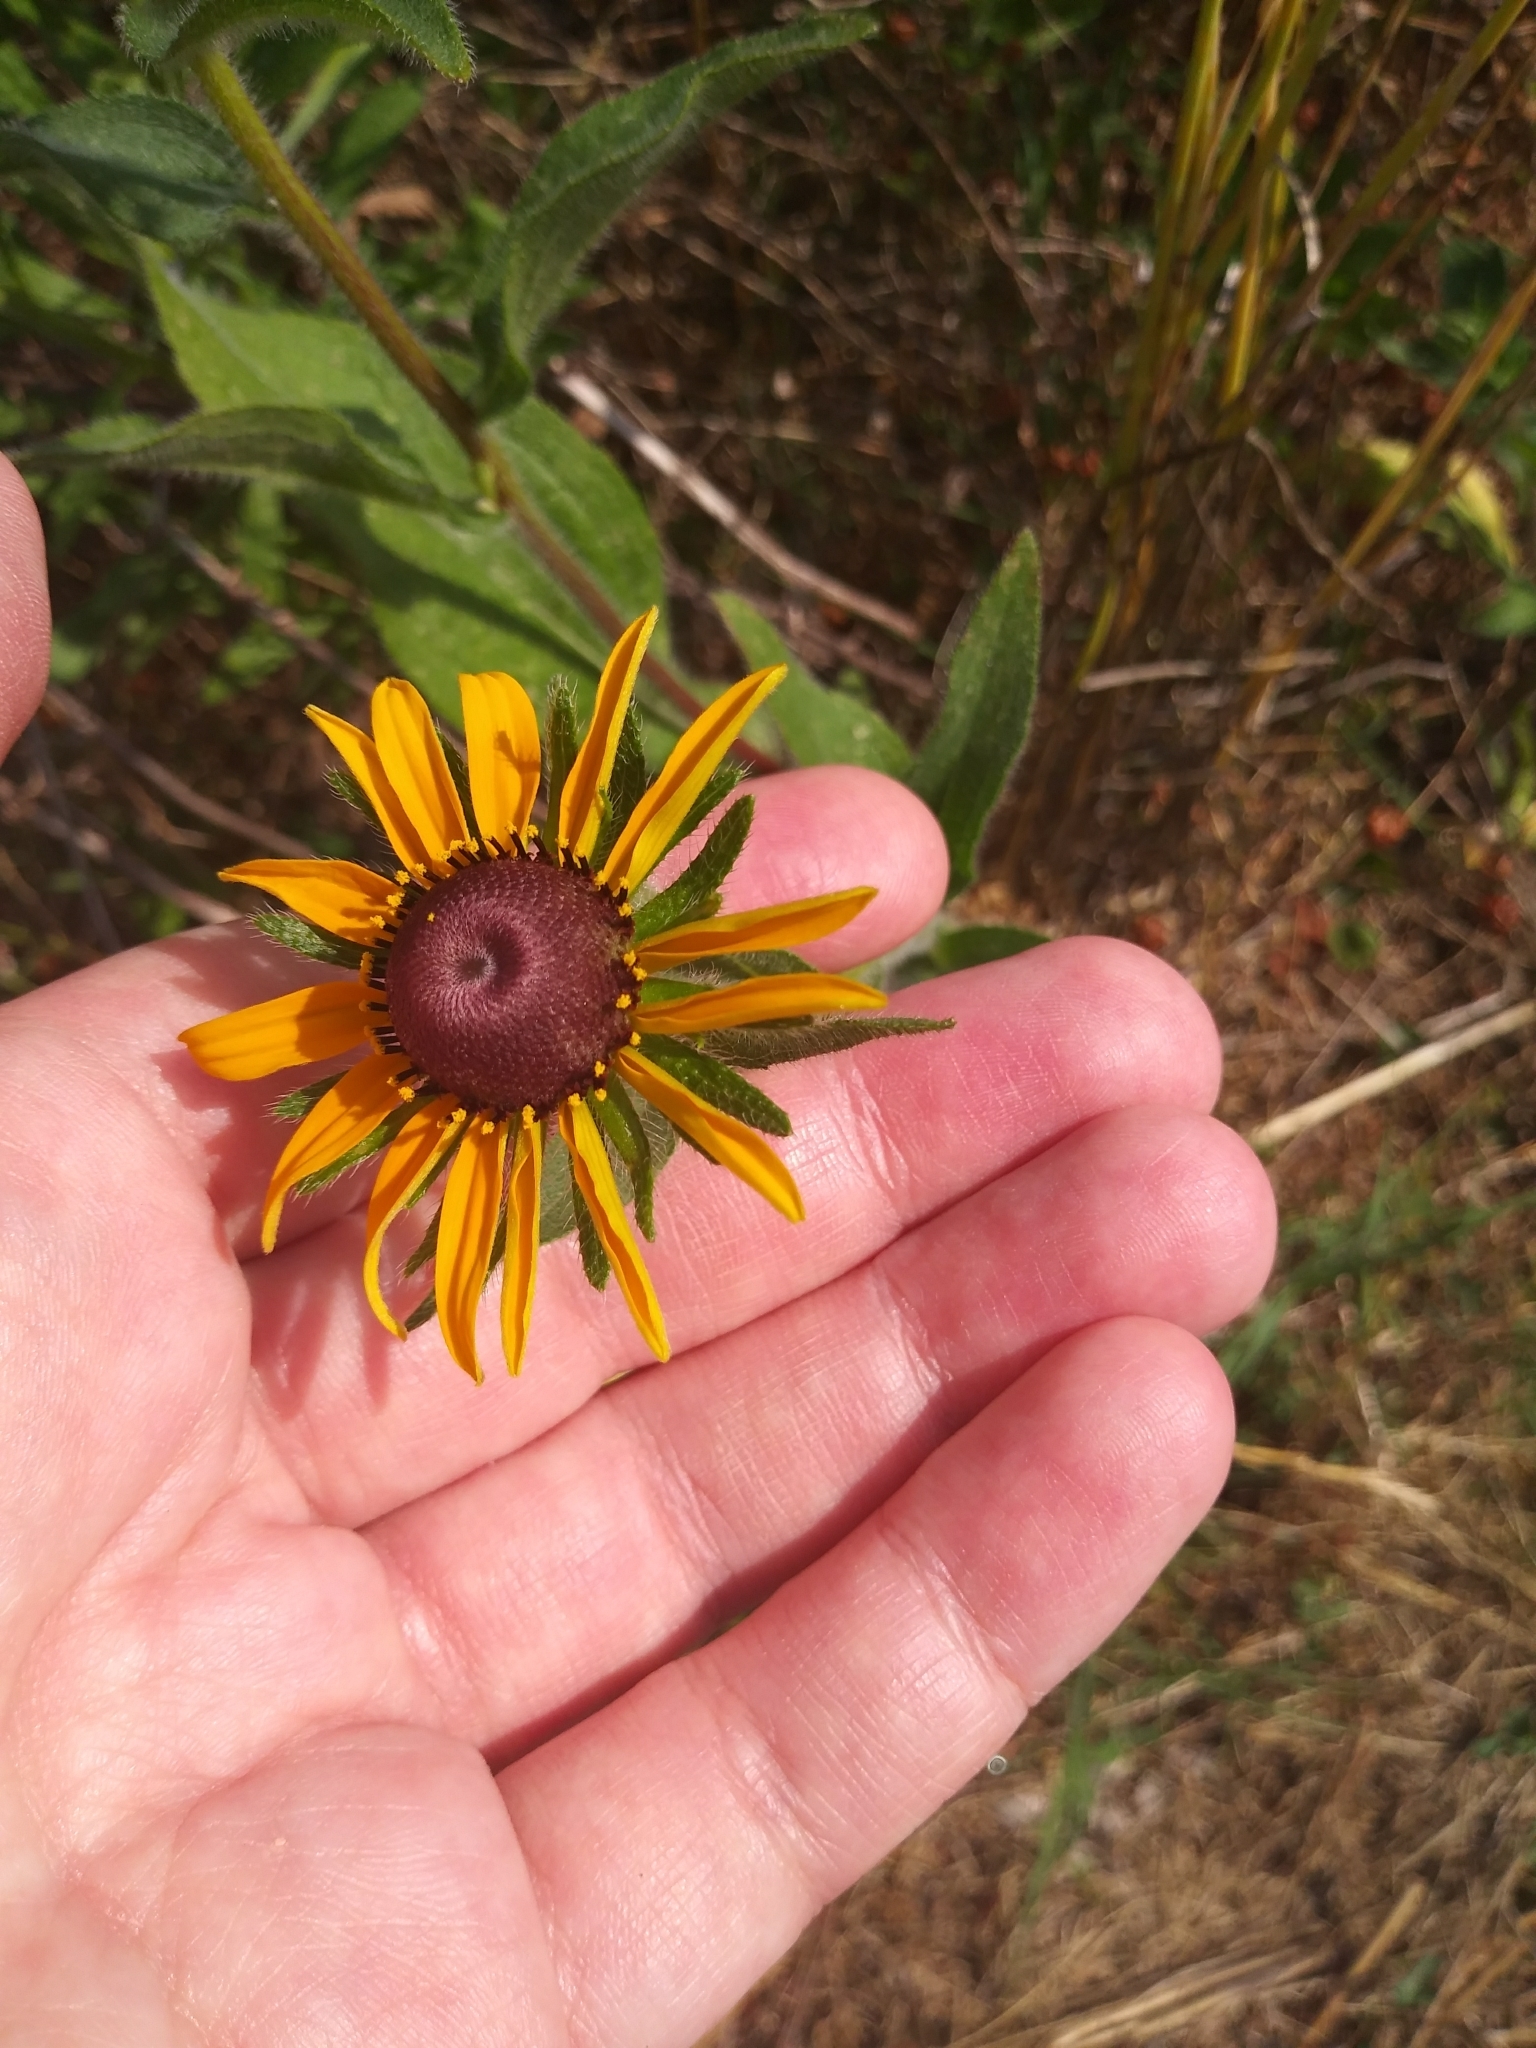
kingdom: Plantae
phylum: Tracheophyta
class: Magnoliopsida
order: Asterales
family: Asteraceae
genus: Rudbeckia
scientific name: Rudbeckia hirta
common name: Black-eyed-susan
